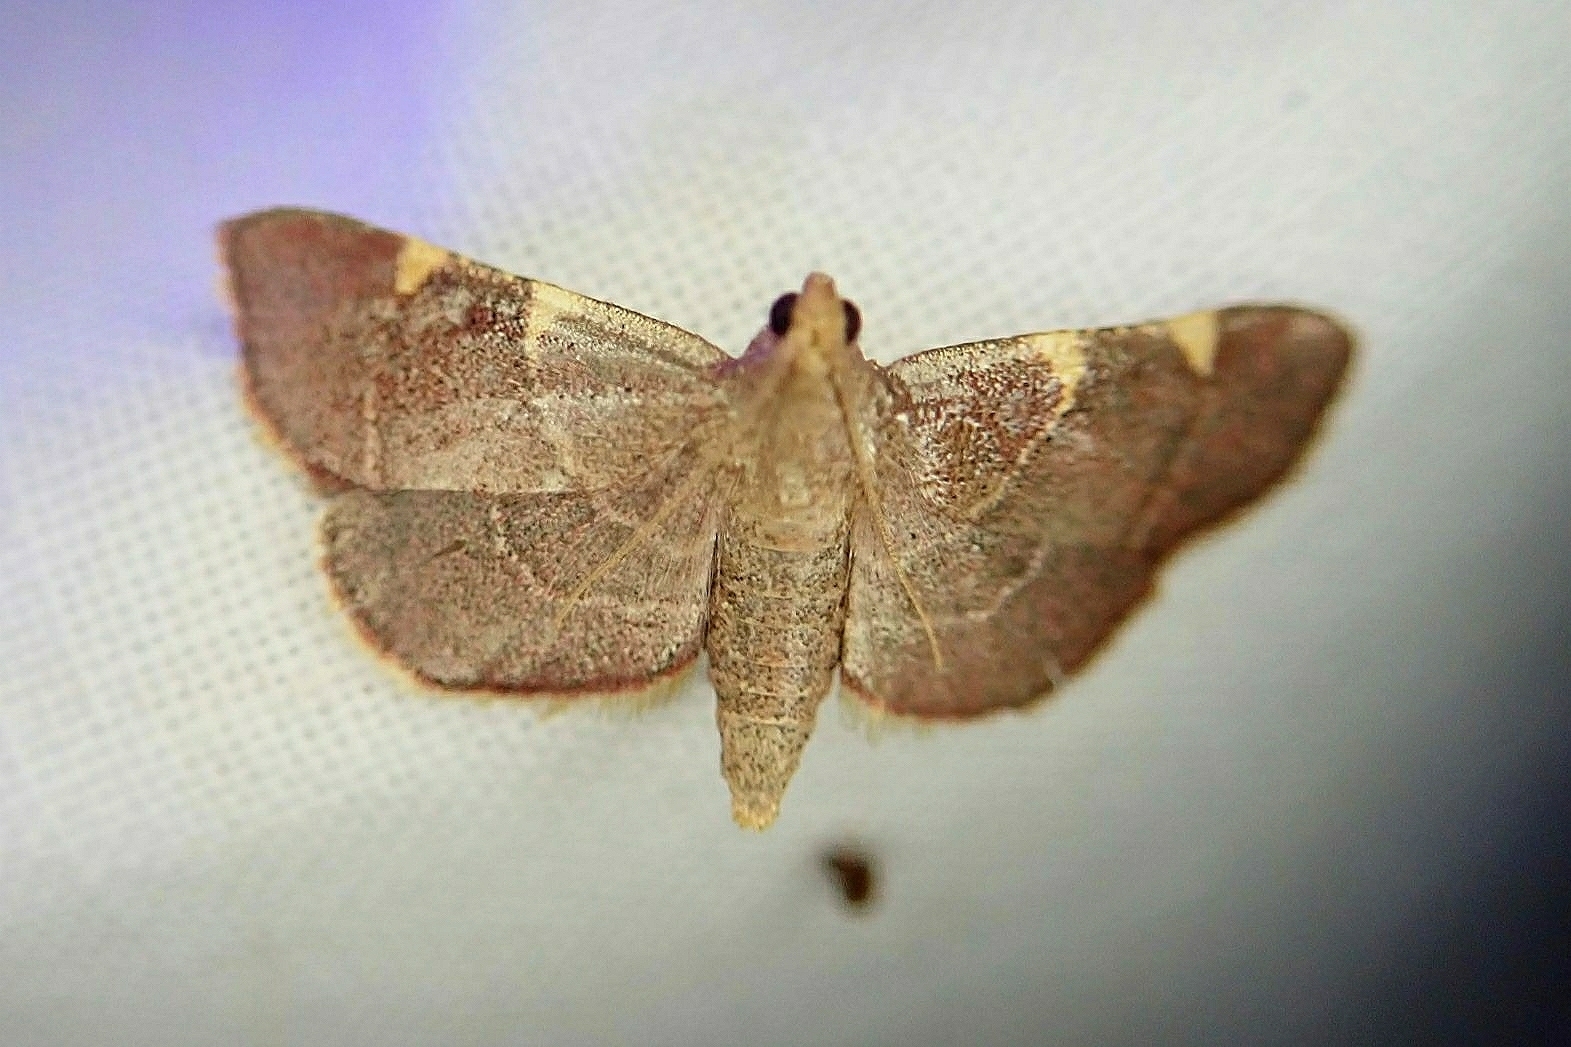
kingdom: Animalia
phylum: Arthropoda
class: Insecta
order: Lepidoptera
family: Pyralidae
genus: Hypsopygia
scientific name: Hypsopygia olinalis
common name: Yellow-fringed dolichomia moth
